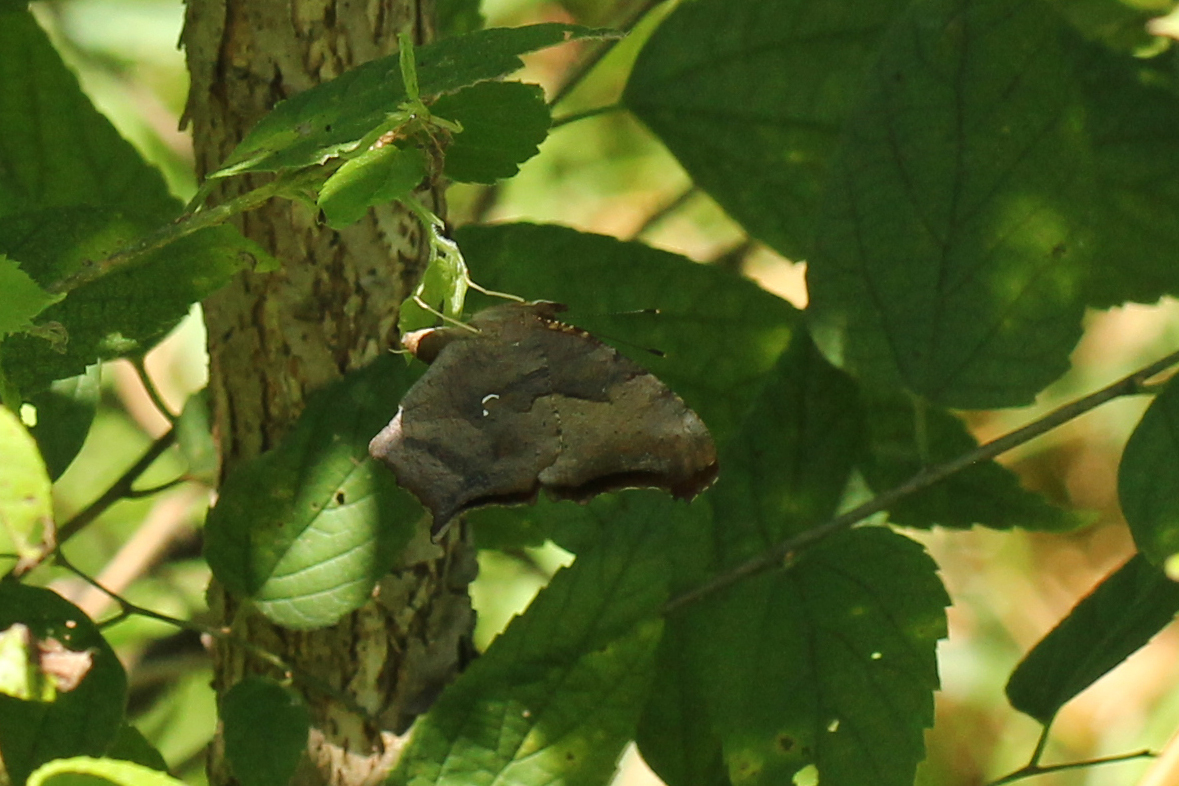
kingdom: Animalia
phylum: Arthropoda
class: Insecta
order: Lepidoptera
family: Nymphalidae
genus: Polygonia
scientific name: Polygonia interrogationis
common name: Question mark
